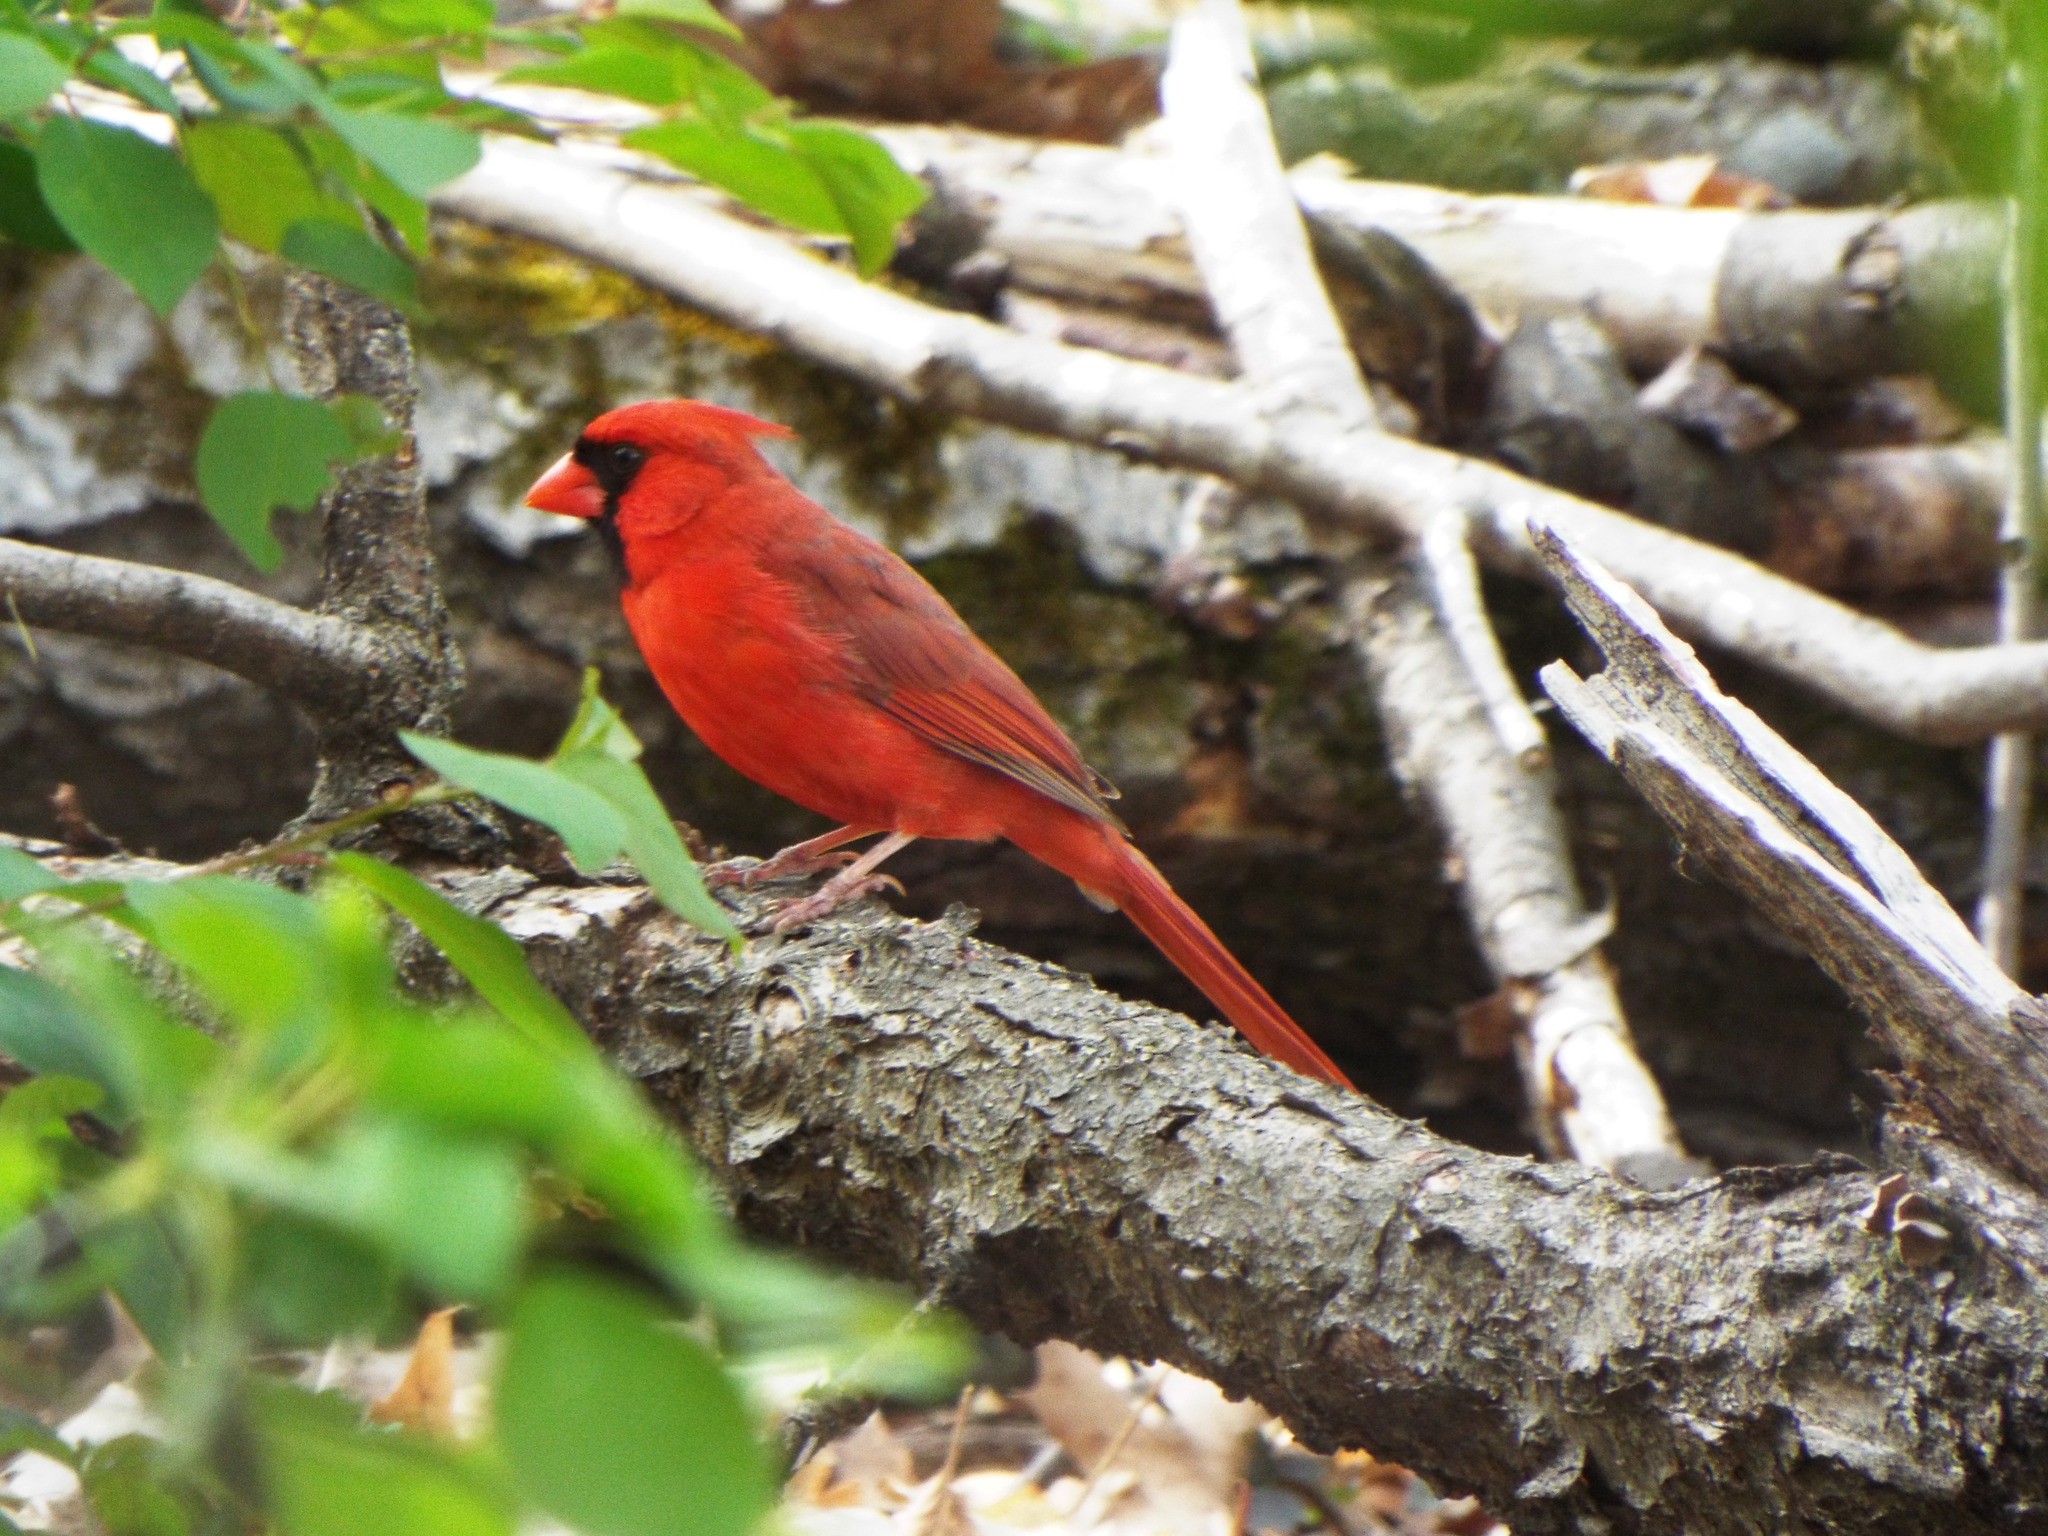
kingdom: Animalia
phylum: Chordata
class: Aves
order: Passeriformes
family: Cardinalidae
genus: Cardinalis
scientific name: Cardinalis cardinalis
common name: Northern cardinal
